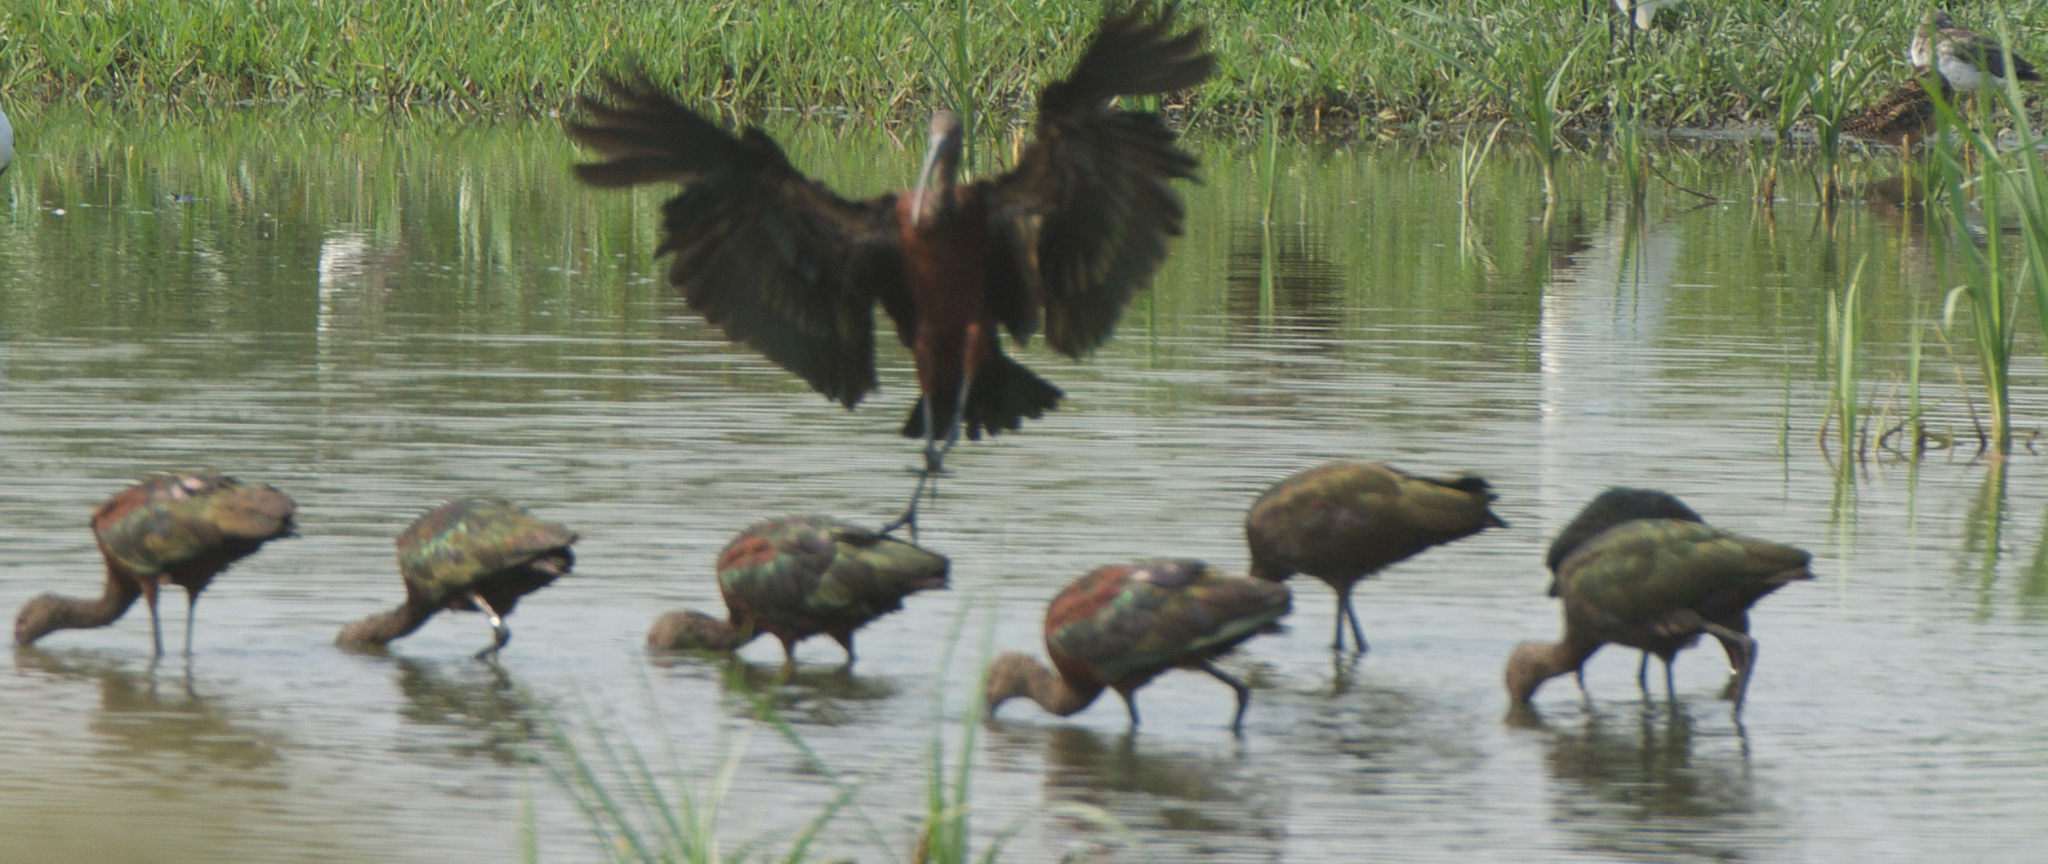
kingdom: Animalia
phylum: Chordata
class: Aves
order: Pelecaniformes
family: Threskiornithidae
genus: Plegadis
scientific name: Plegadis chihi
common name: White-faced ibis
